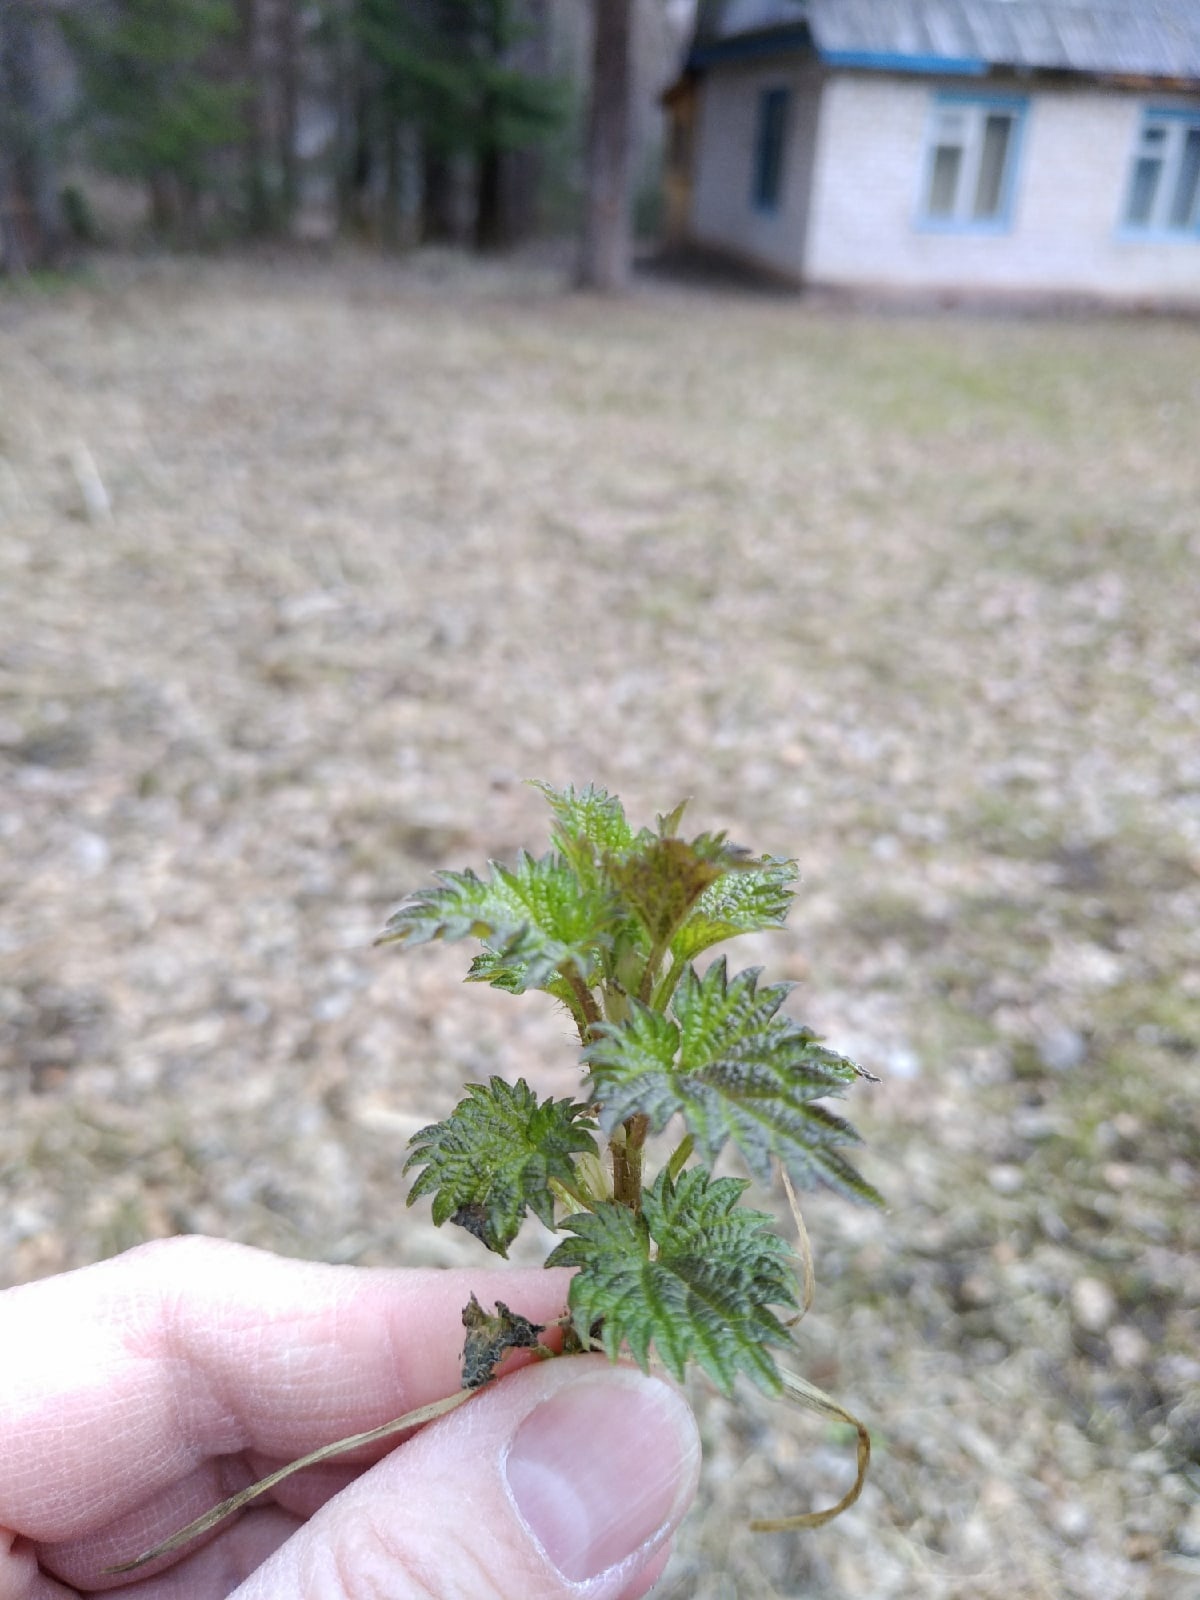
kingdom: Plantae
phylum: Tracheophyta
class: Magnoliopsida
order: Rosales
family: Urticaceae
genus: Urtica
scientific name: Urtica dioica
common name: Common nettle
